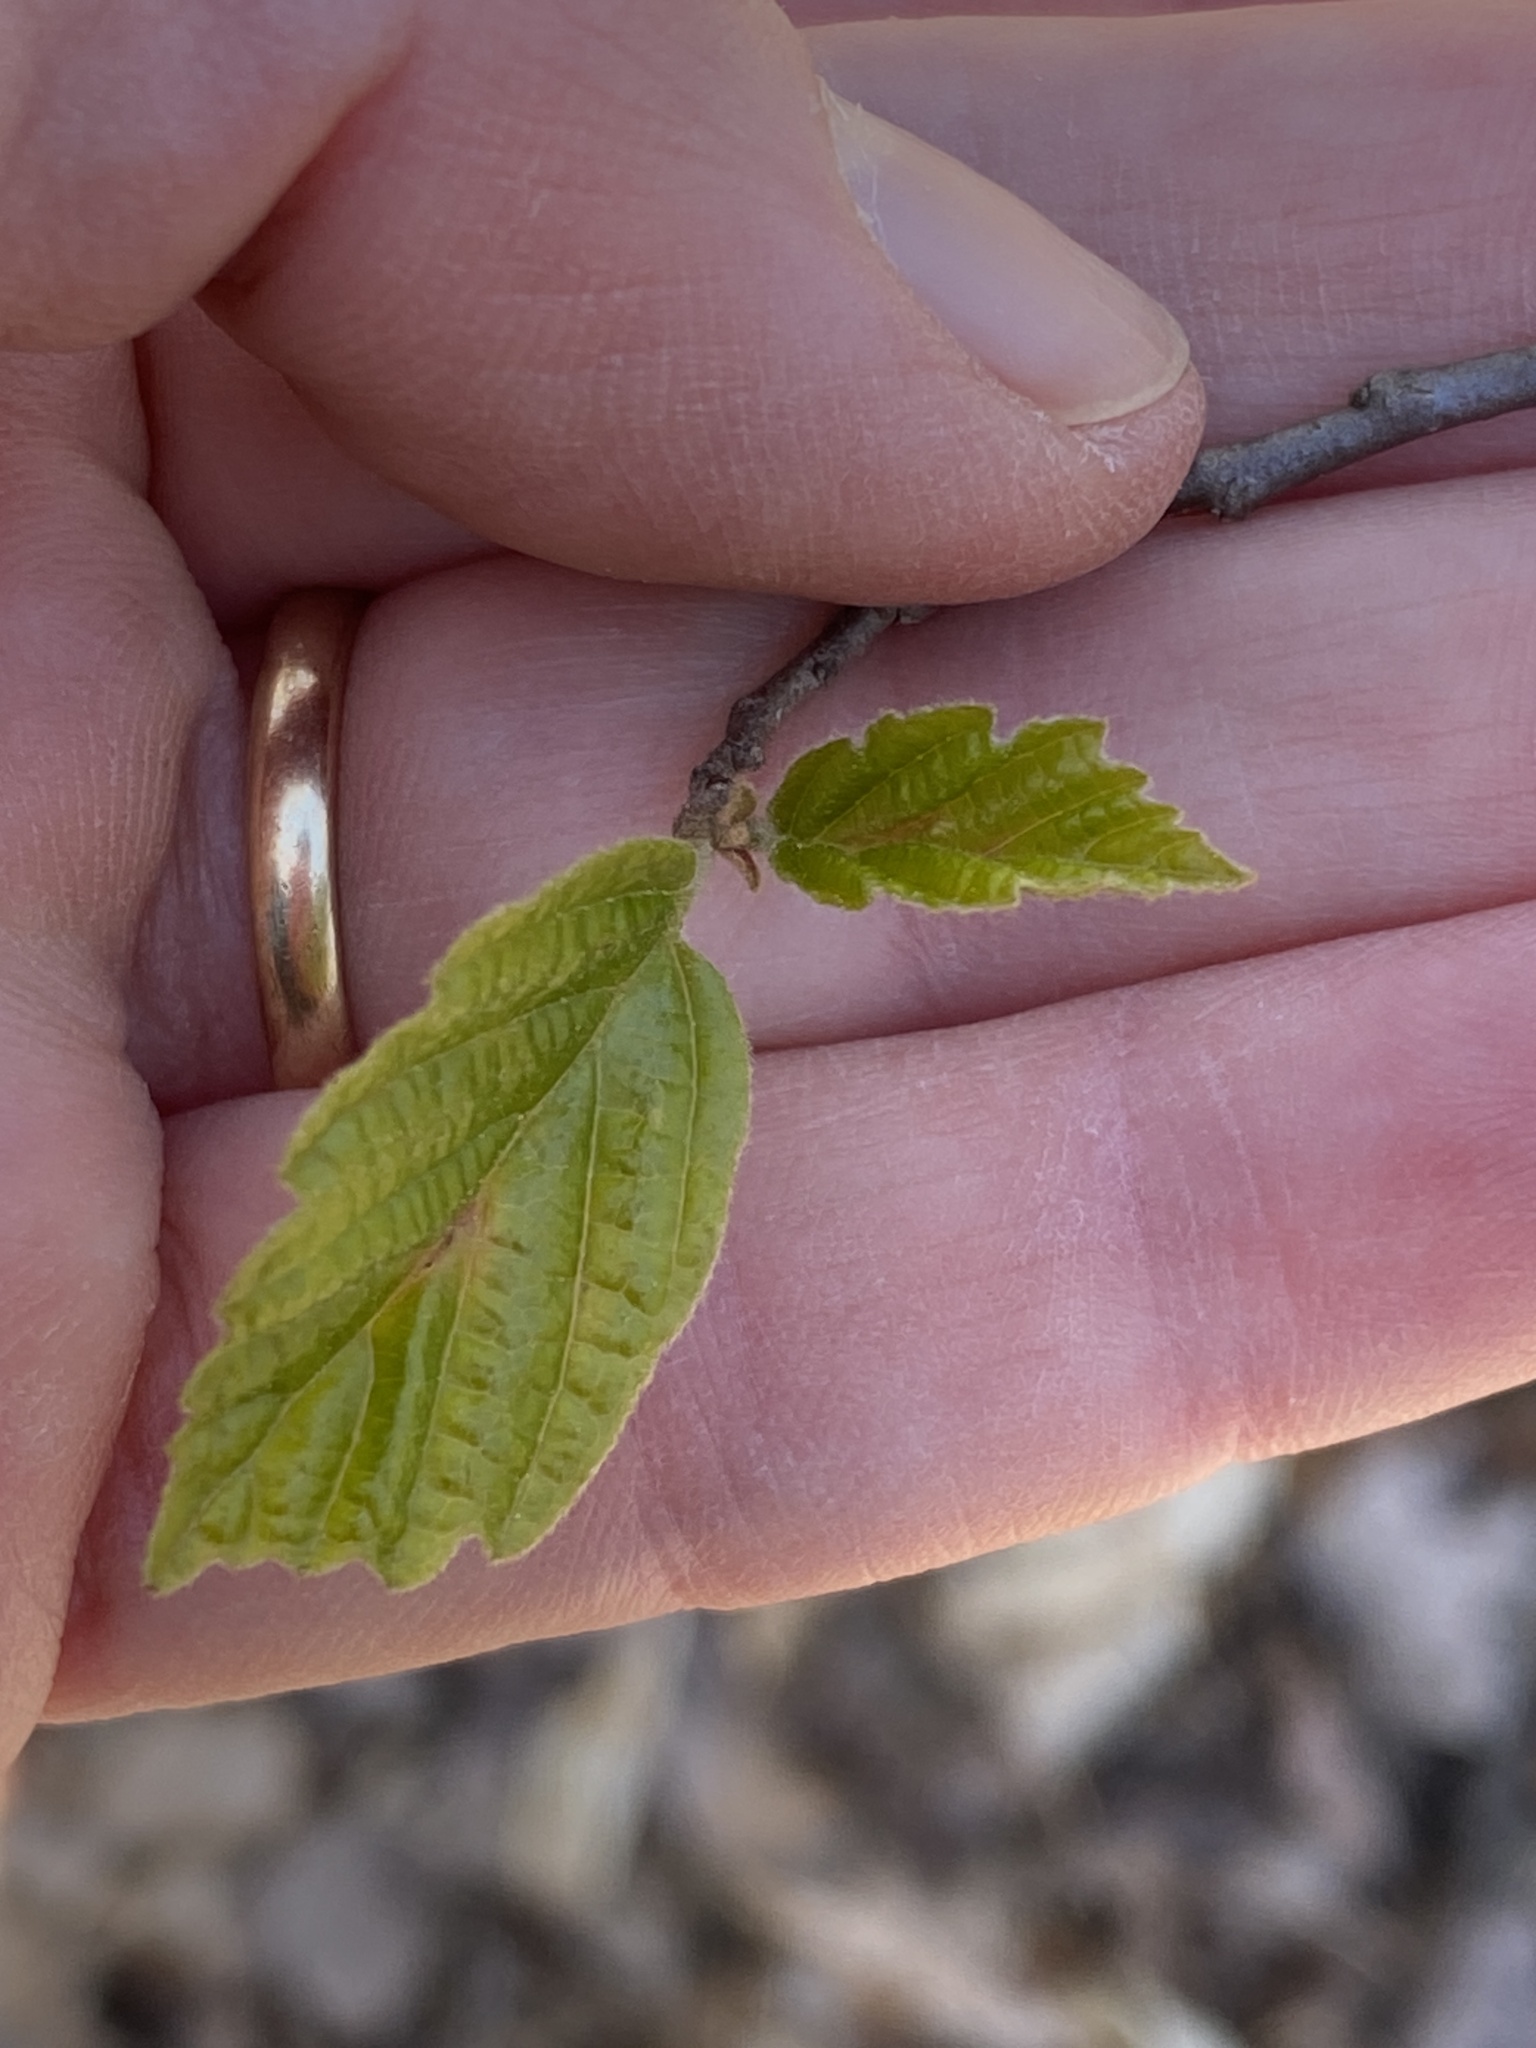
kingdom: Plantae
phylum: Tracheophyta
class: Magnoliopsida
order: Saxifragales
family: Hamamelidaceae
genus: Hamamelis
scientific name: Hamamelis virginiana
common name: Witch-hazel
